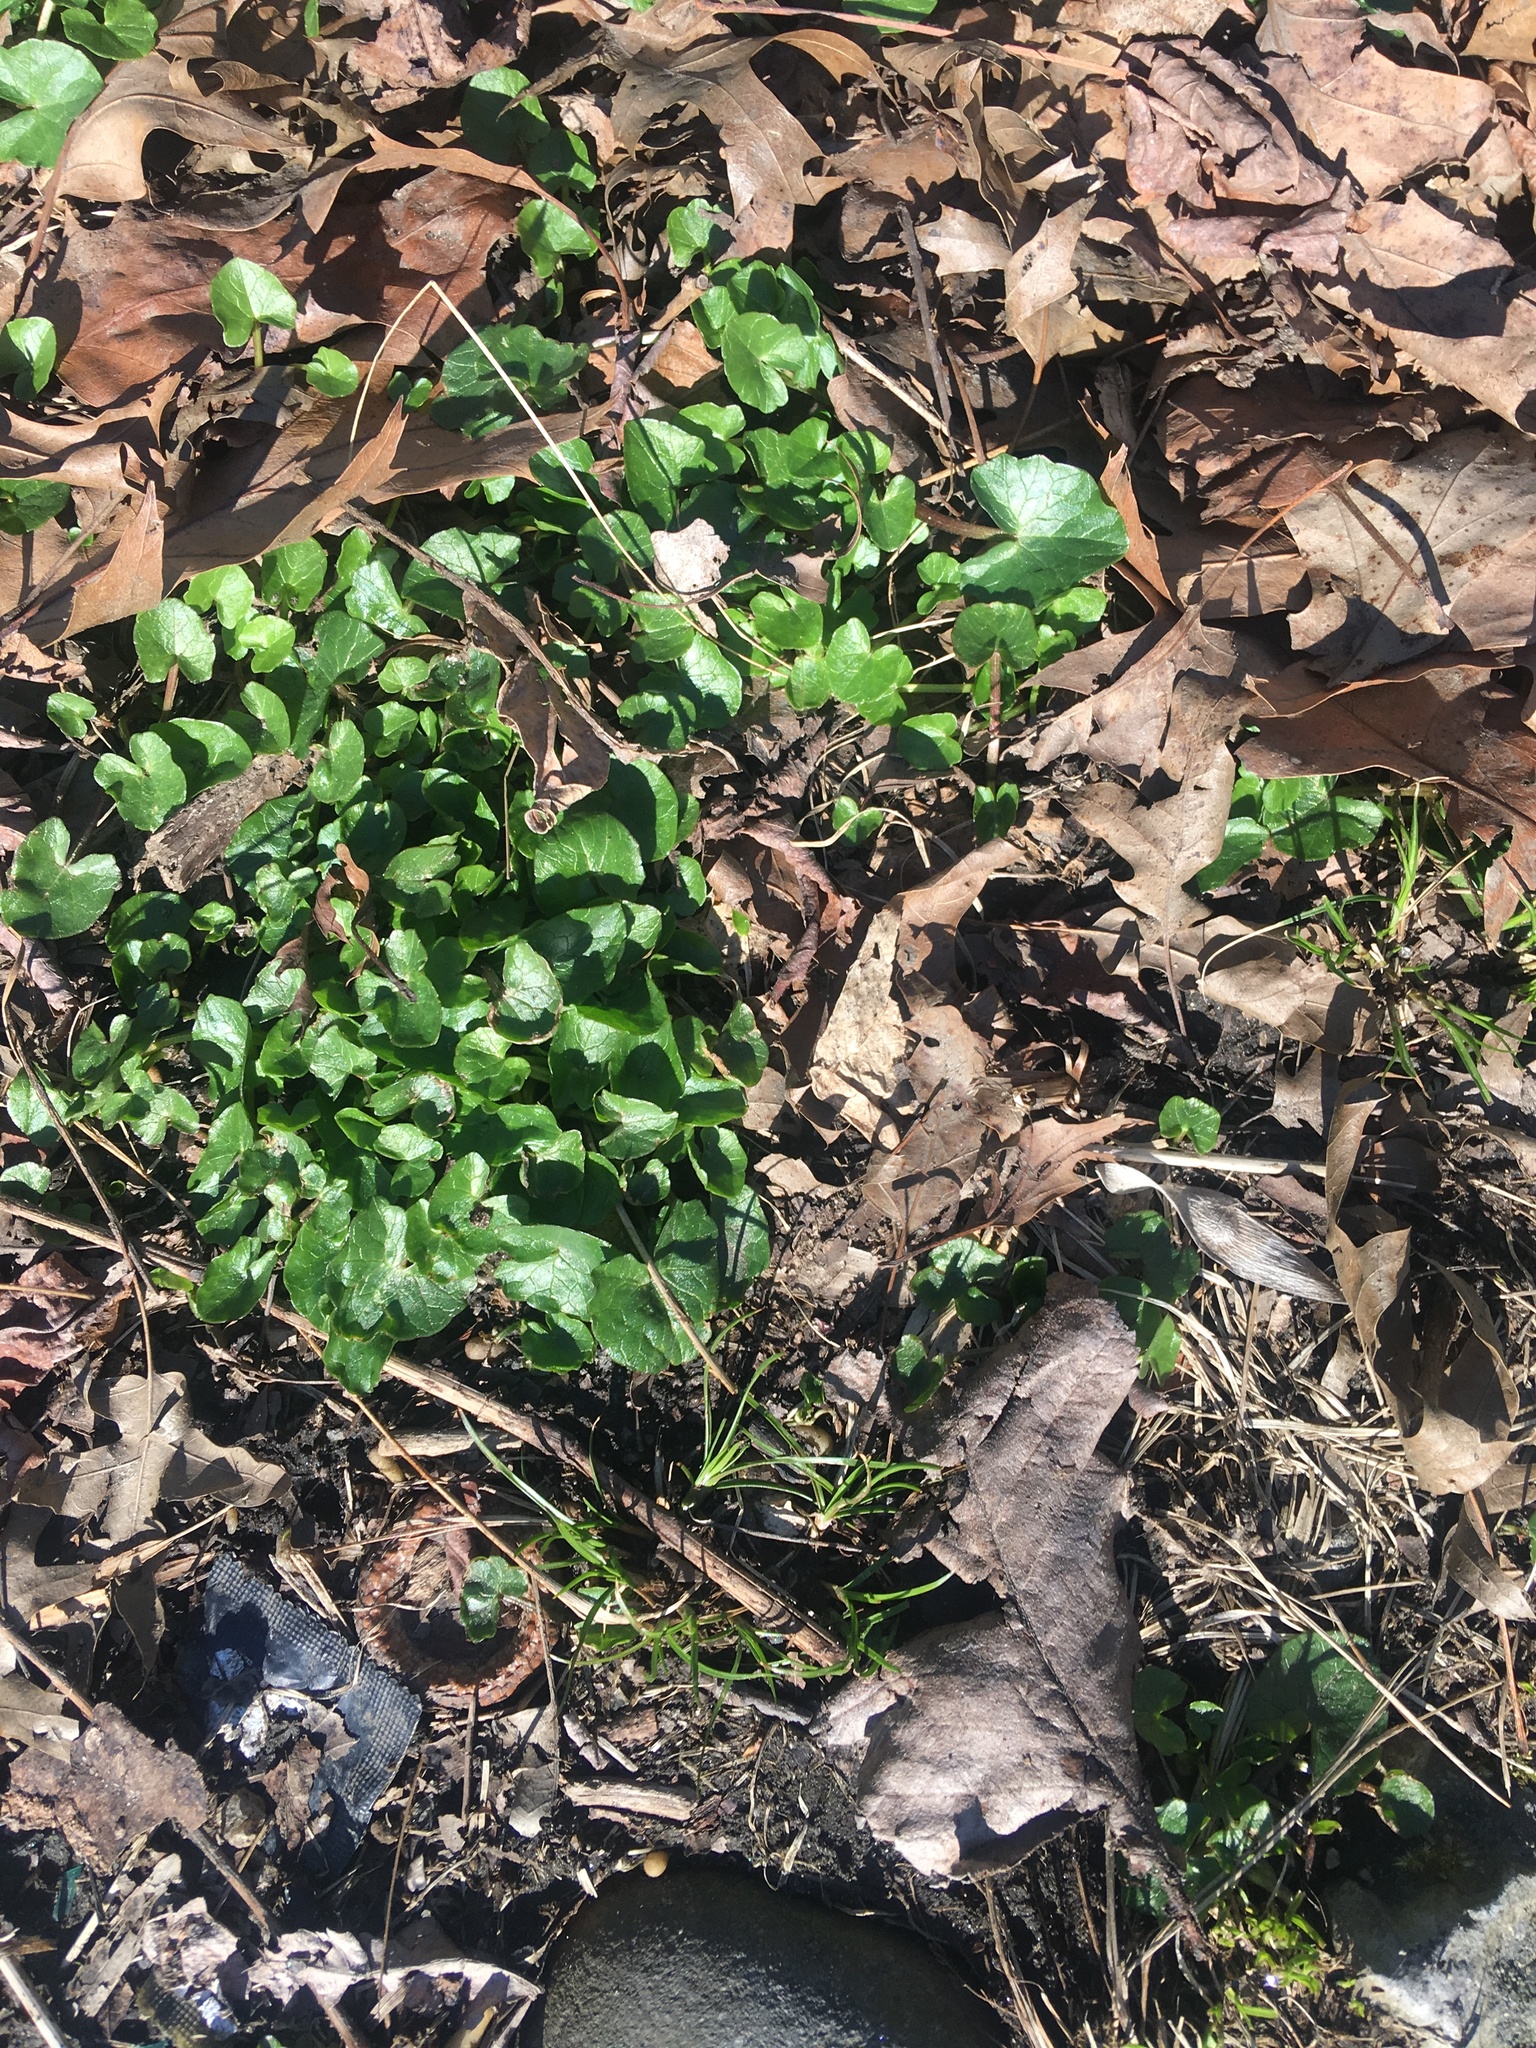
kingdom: Plantae
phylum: Tracheophyta
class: Magnoliopsida
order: Ranunculales
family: Ranunculaceae
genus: Ficaria
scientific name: Ficaria verna
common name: Lesser celandine
